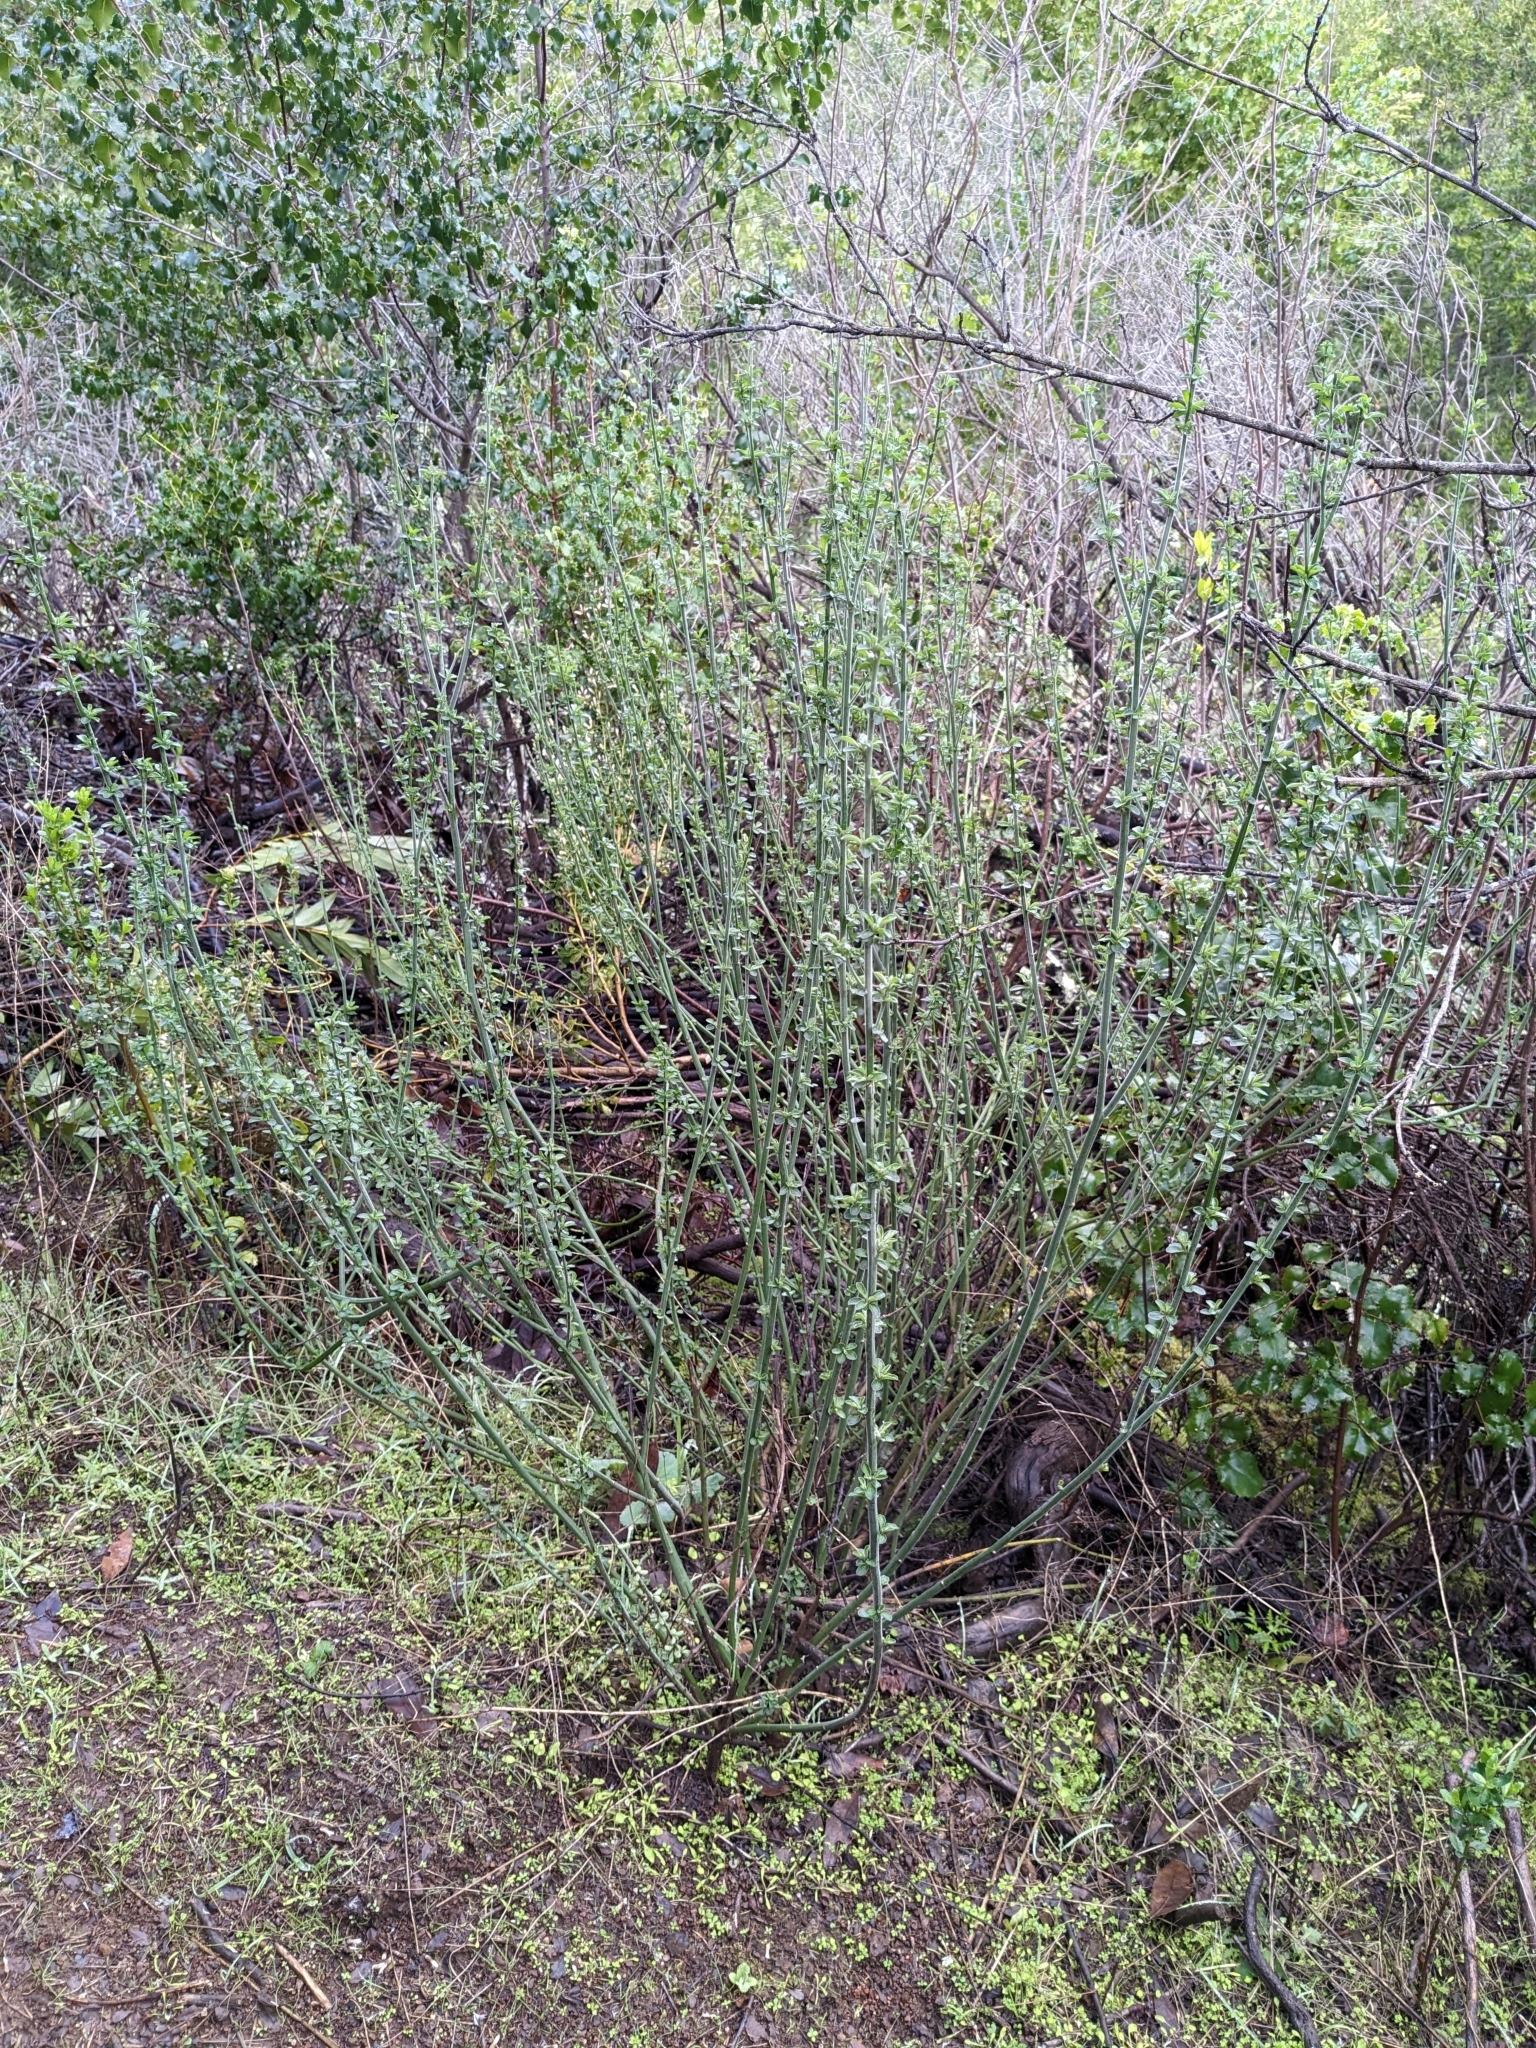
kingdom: Plantae
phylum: Tracheophyta
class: Magnoliopsida
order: Solanales
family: Solanaceae
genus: Solanum
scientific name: Solanum umbelliferum
